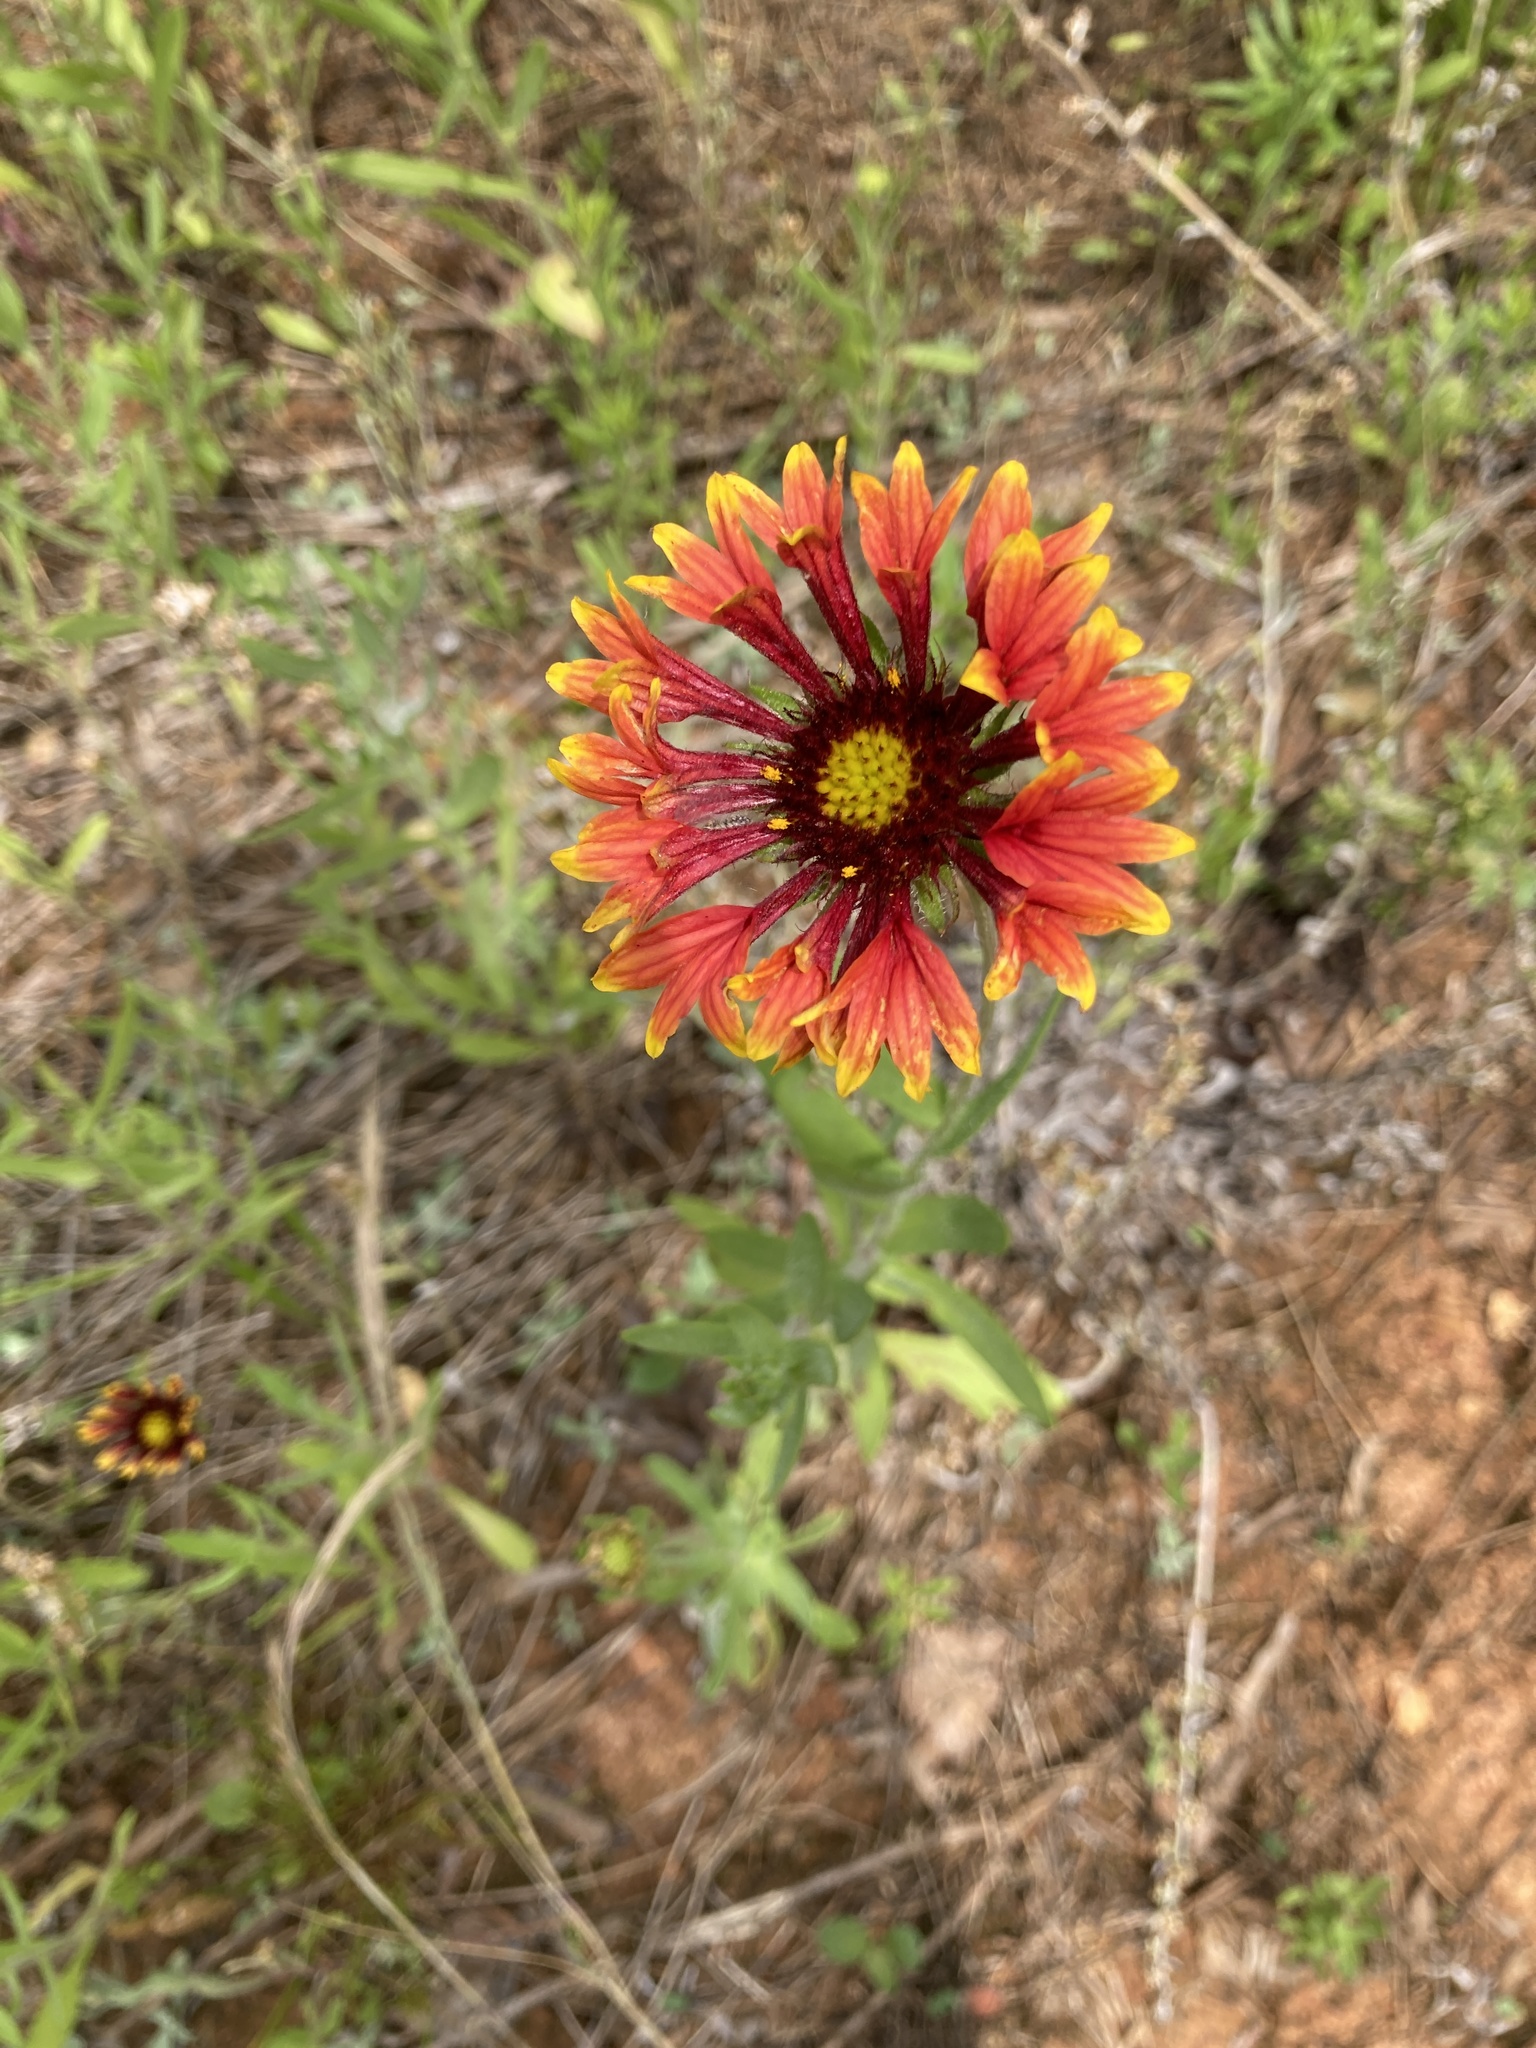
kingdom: Plantae
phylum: Tracheophyta
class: Magnoliopsida
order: Asterales
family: Asteraceae
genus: Gaillardia
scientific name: Gaillardia pulchella
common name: Firewheel
